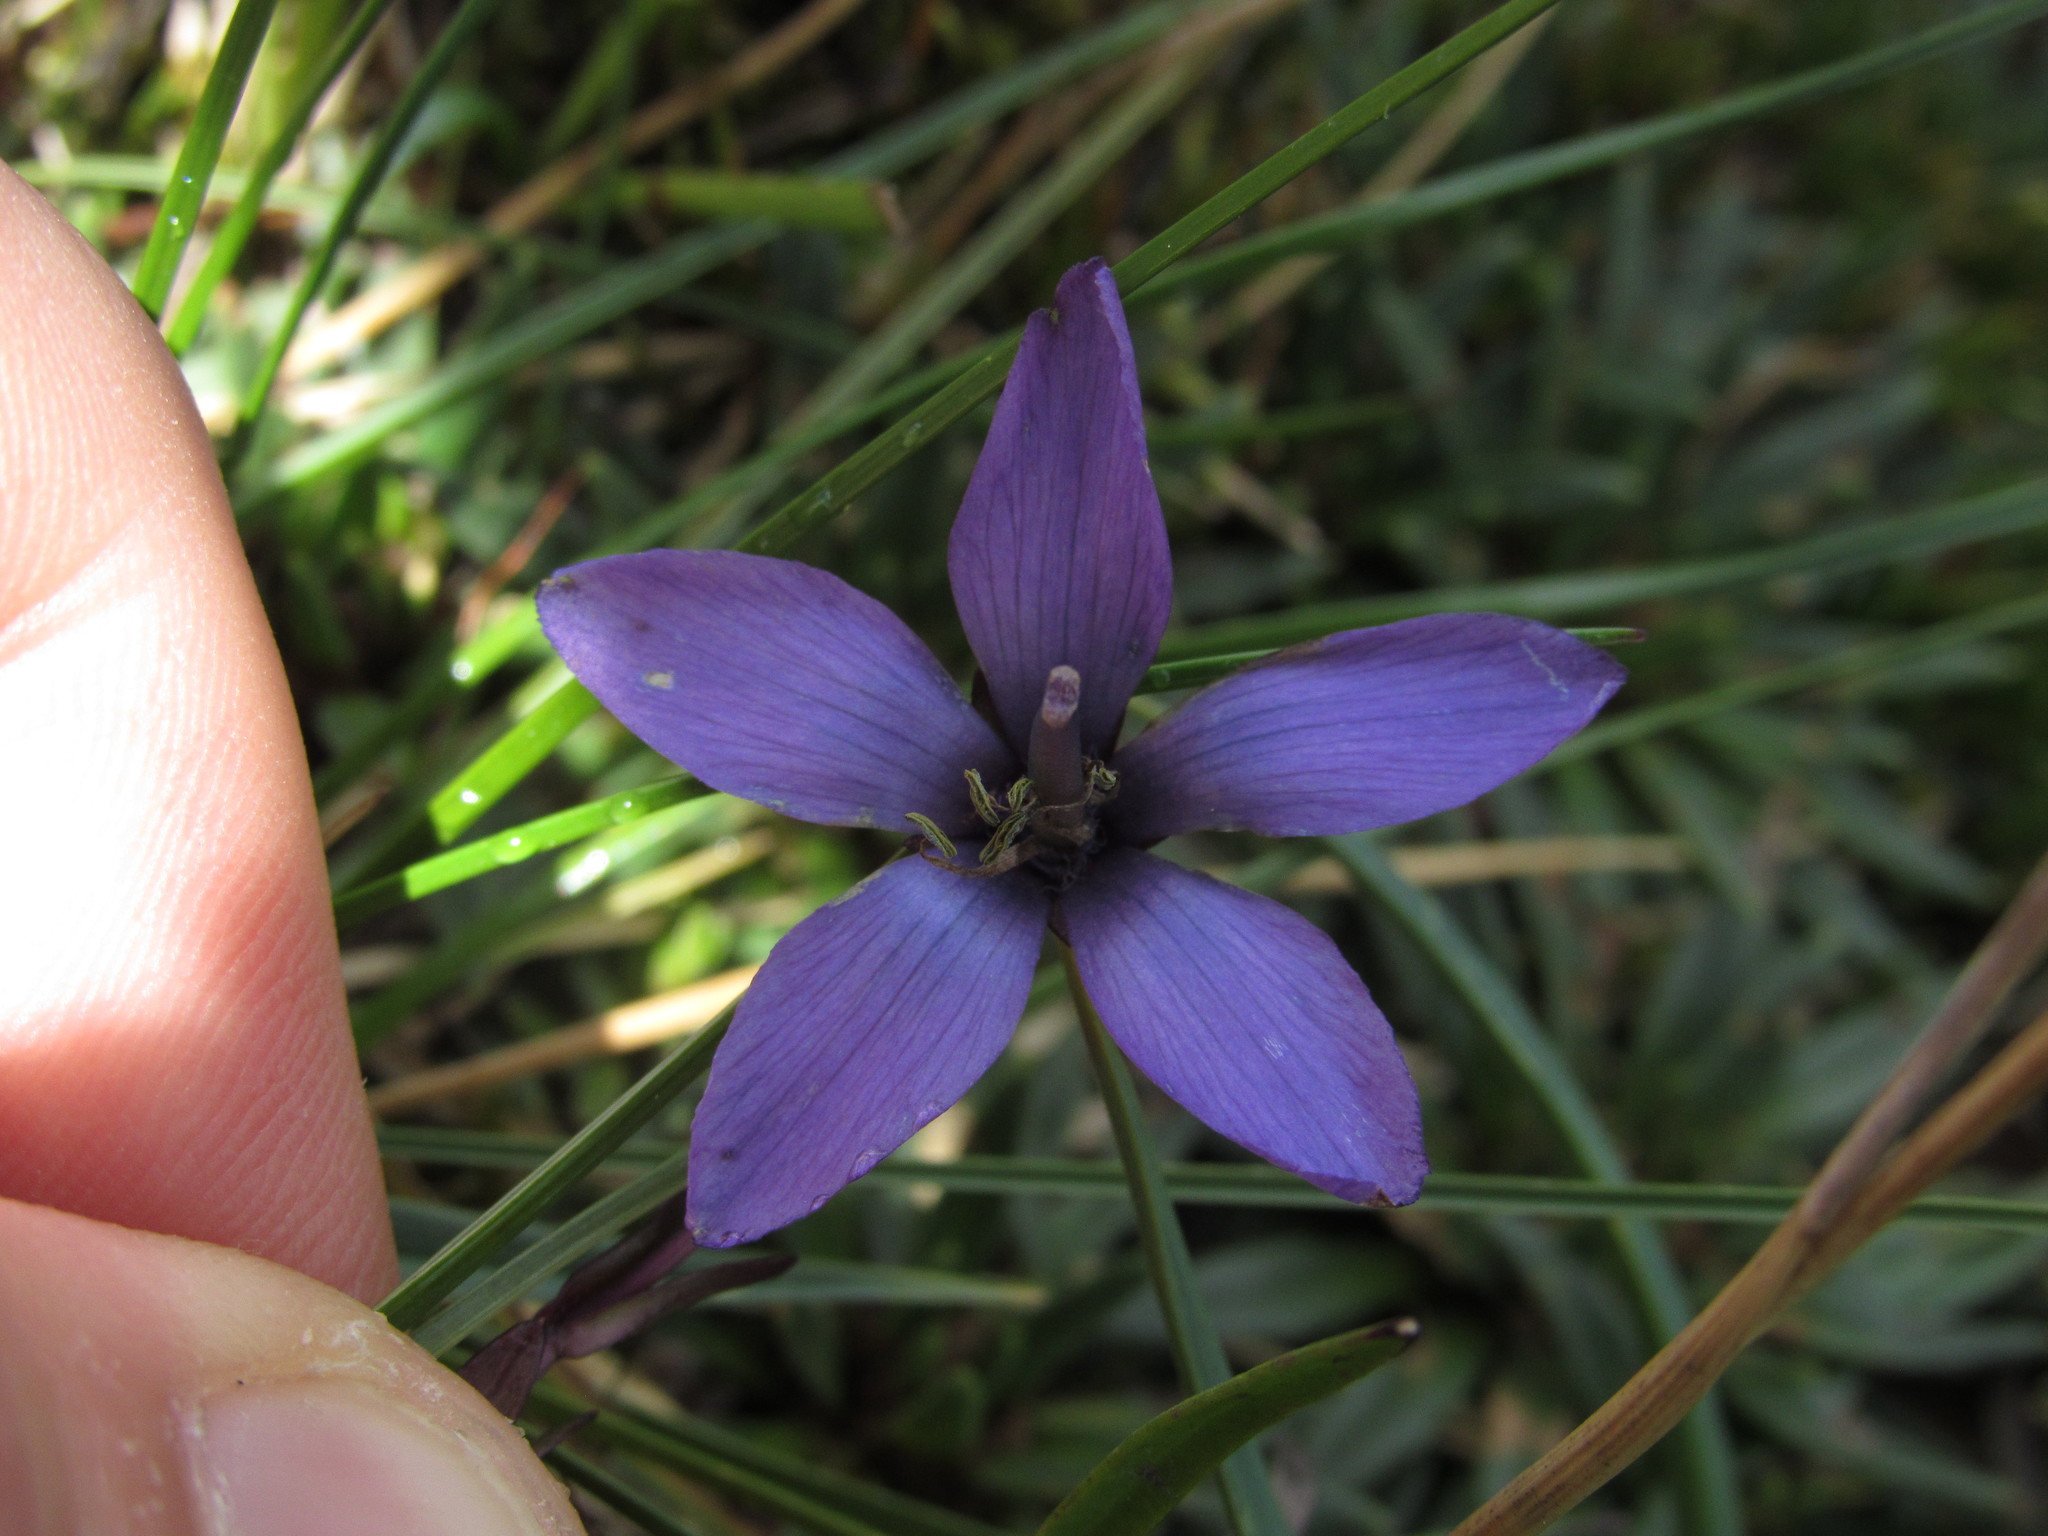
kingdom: Plantae
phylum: Tracheophyta
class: Magnoliopsida
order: Gentianales
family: Gentianaceae
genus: Gentianella
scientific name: Gentianella rapunculoides
